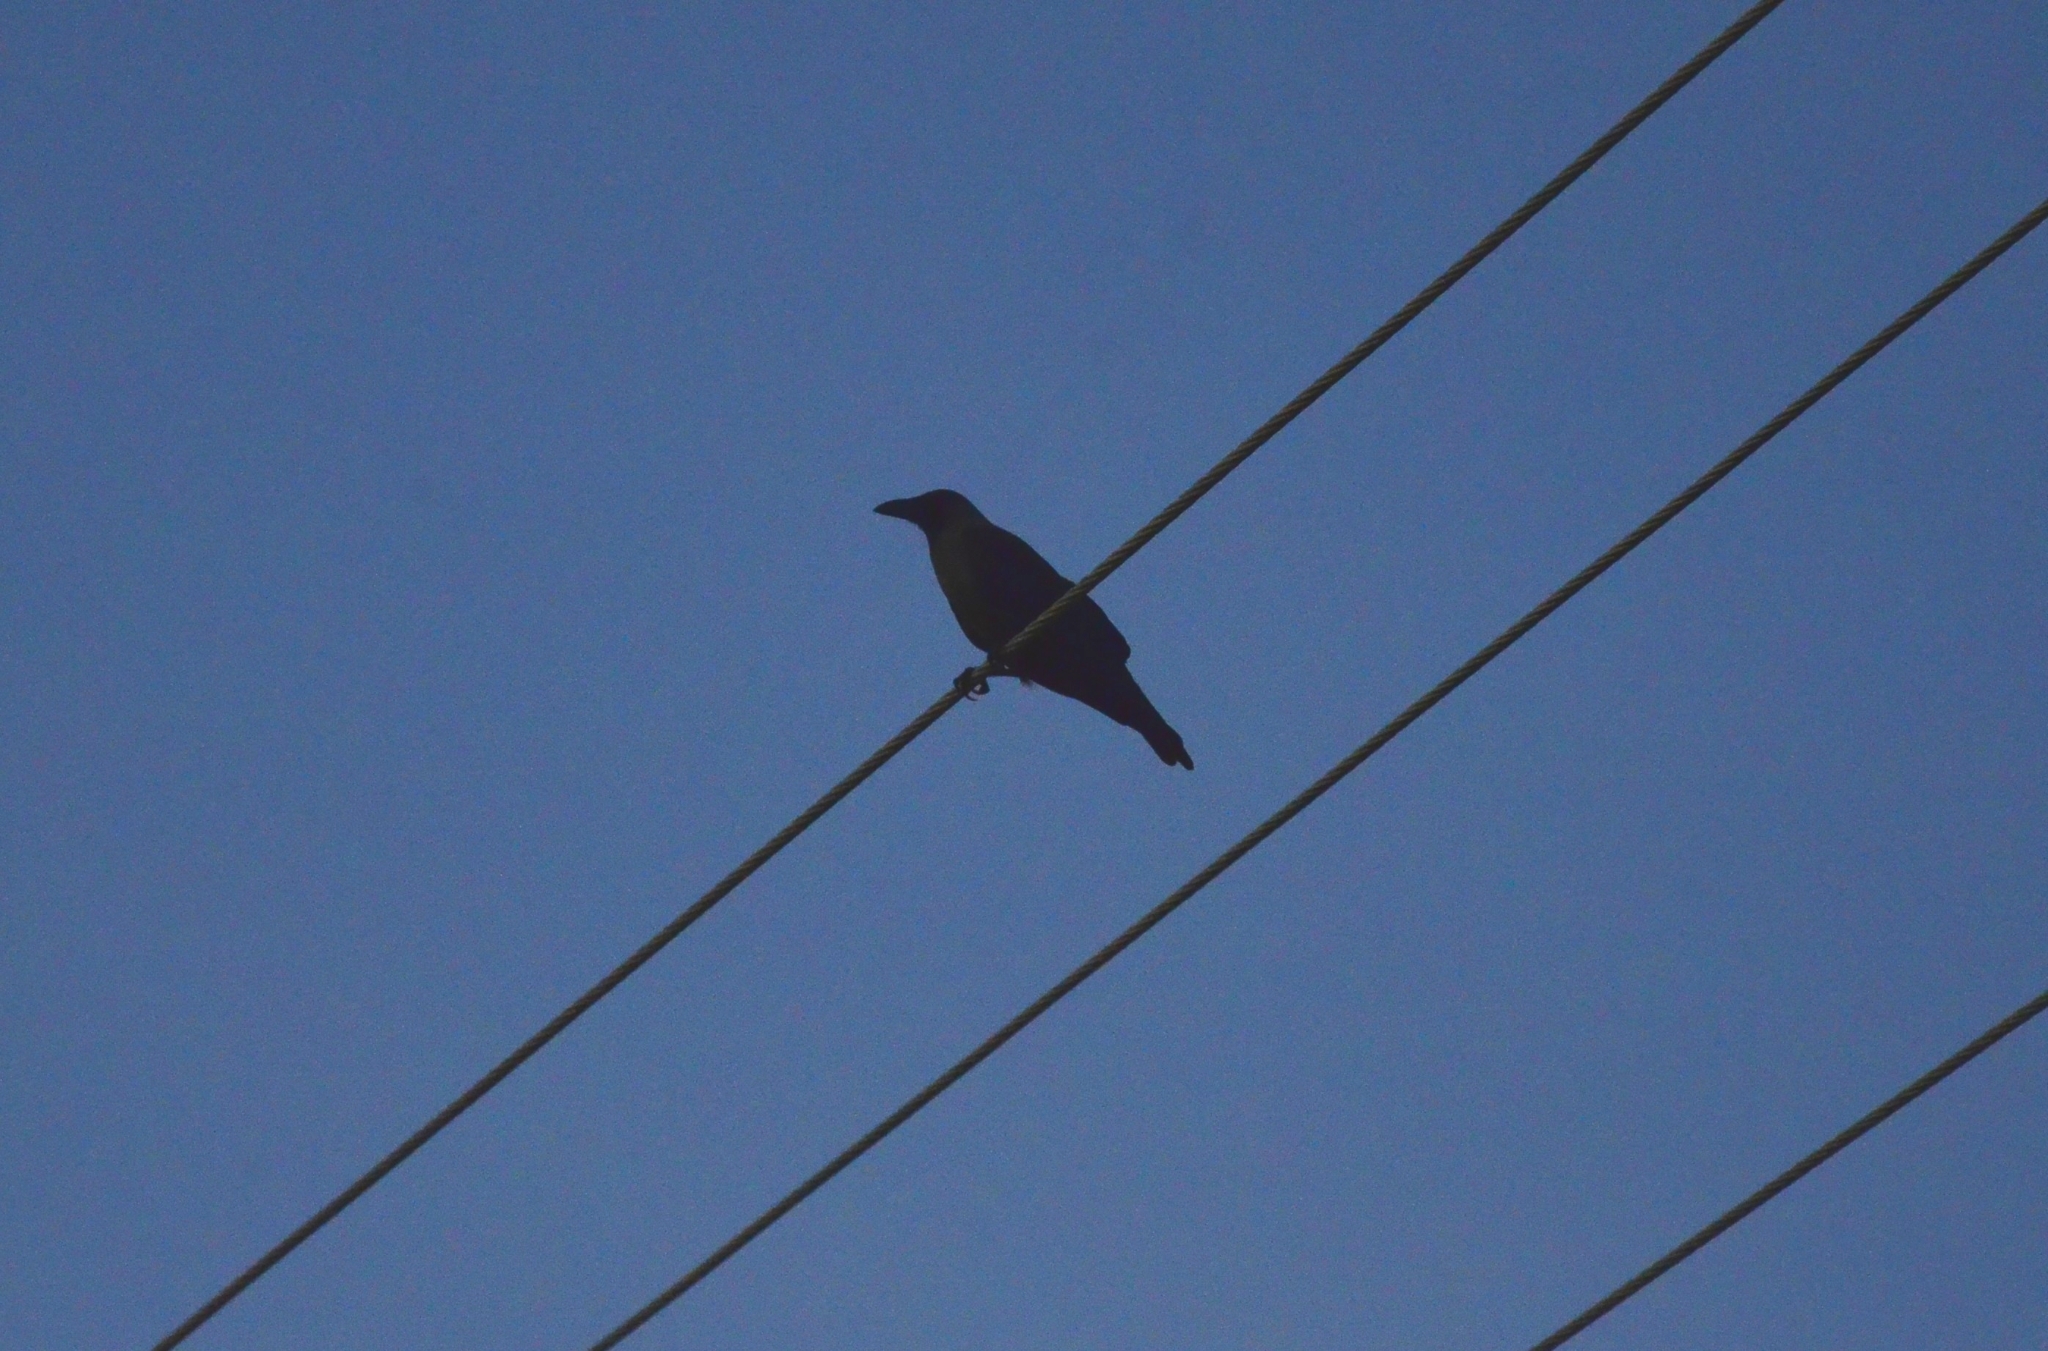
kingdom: Animalia
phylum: Chordata
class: Aves
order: Passeriformes
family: Corvidae
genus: Corvus
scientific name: Corvus splendens
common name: House crow
